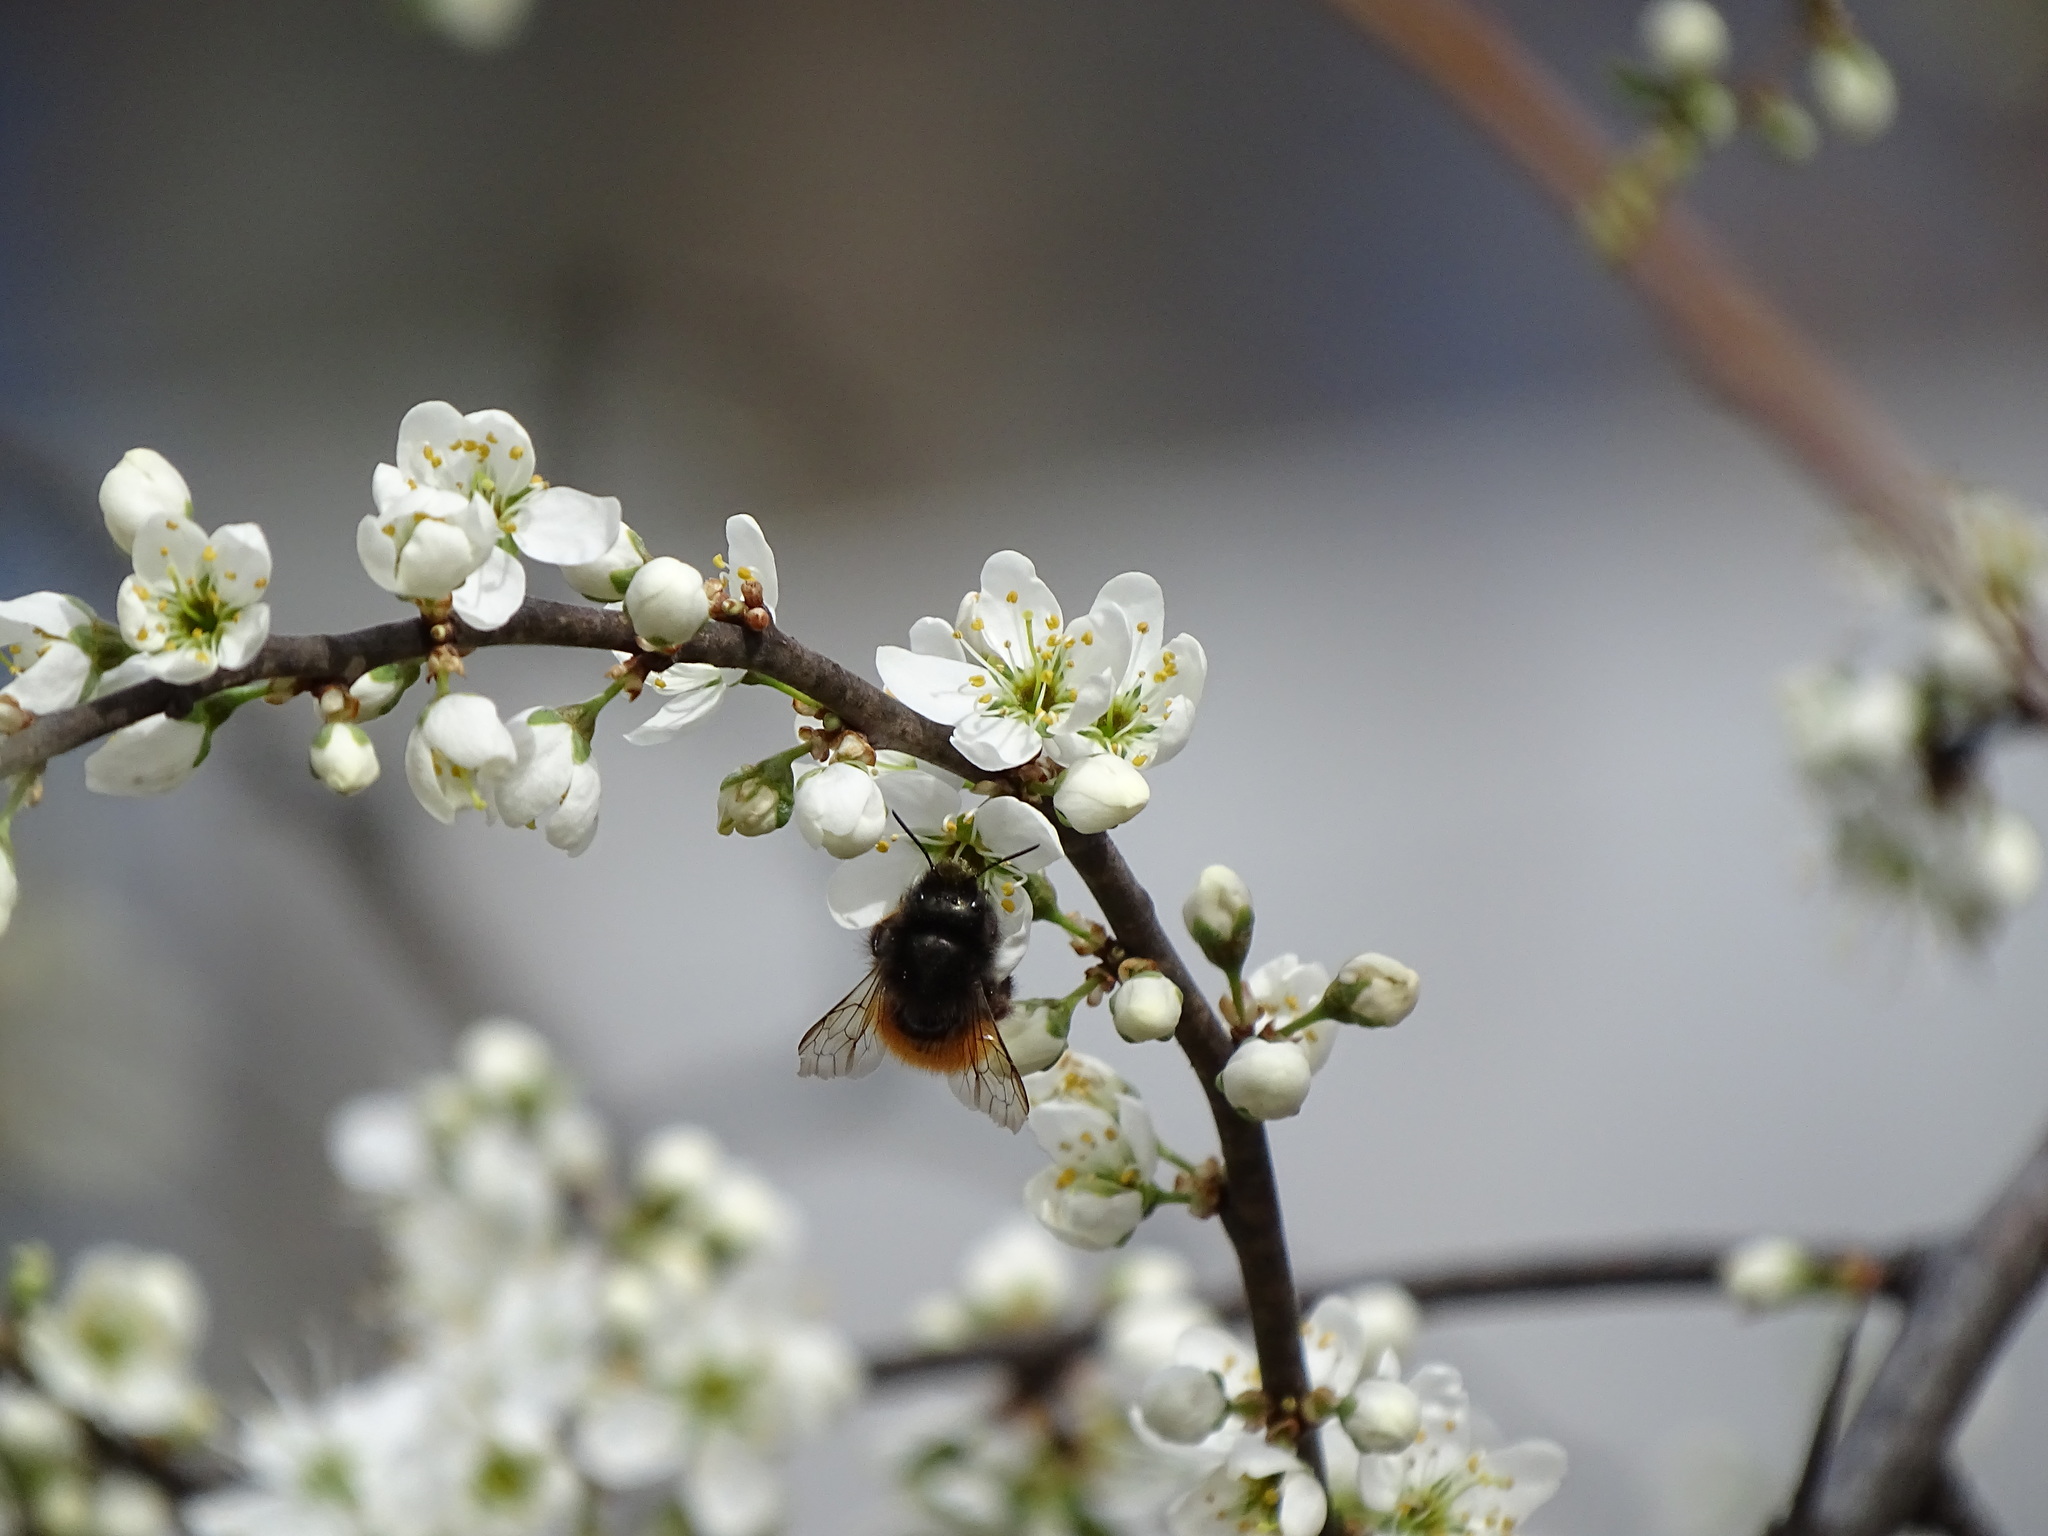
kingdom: Animalia
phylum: Arthropoda
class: Insecta
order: Hymenoptera
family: Megachilidae
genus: Osmia
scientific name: Osmia cornuta
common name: Mason bee
